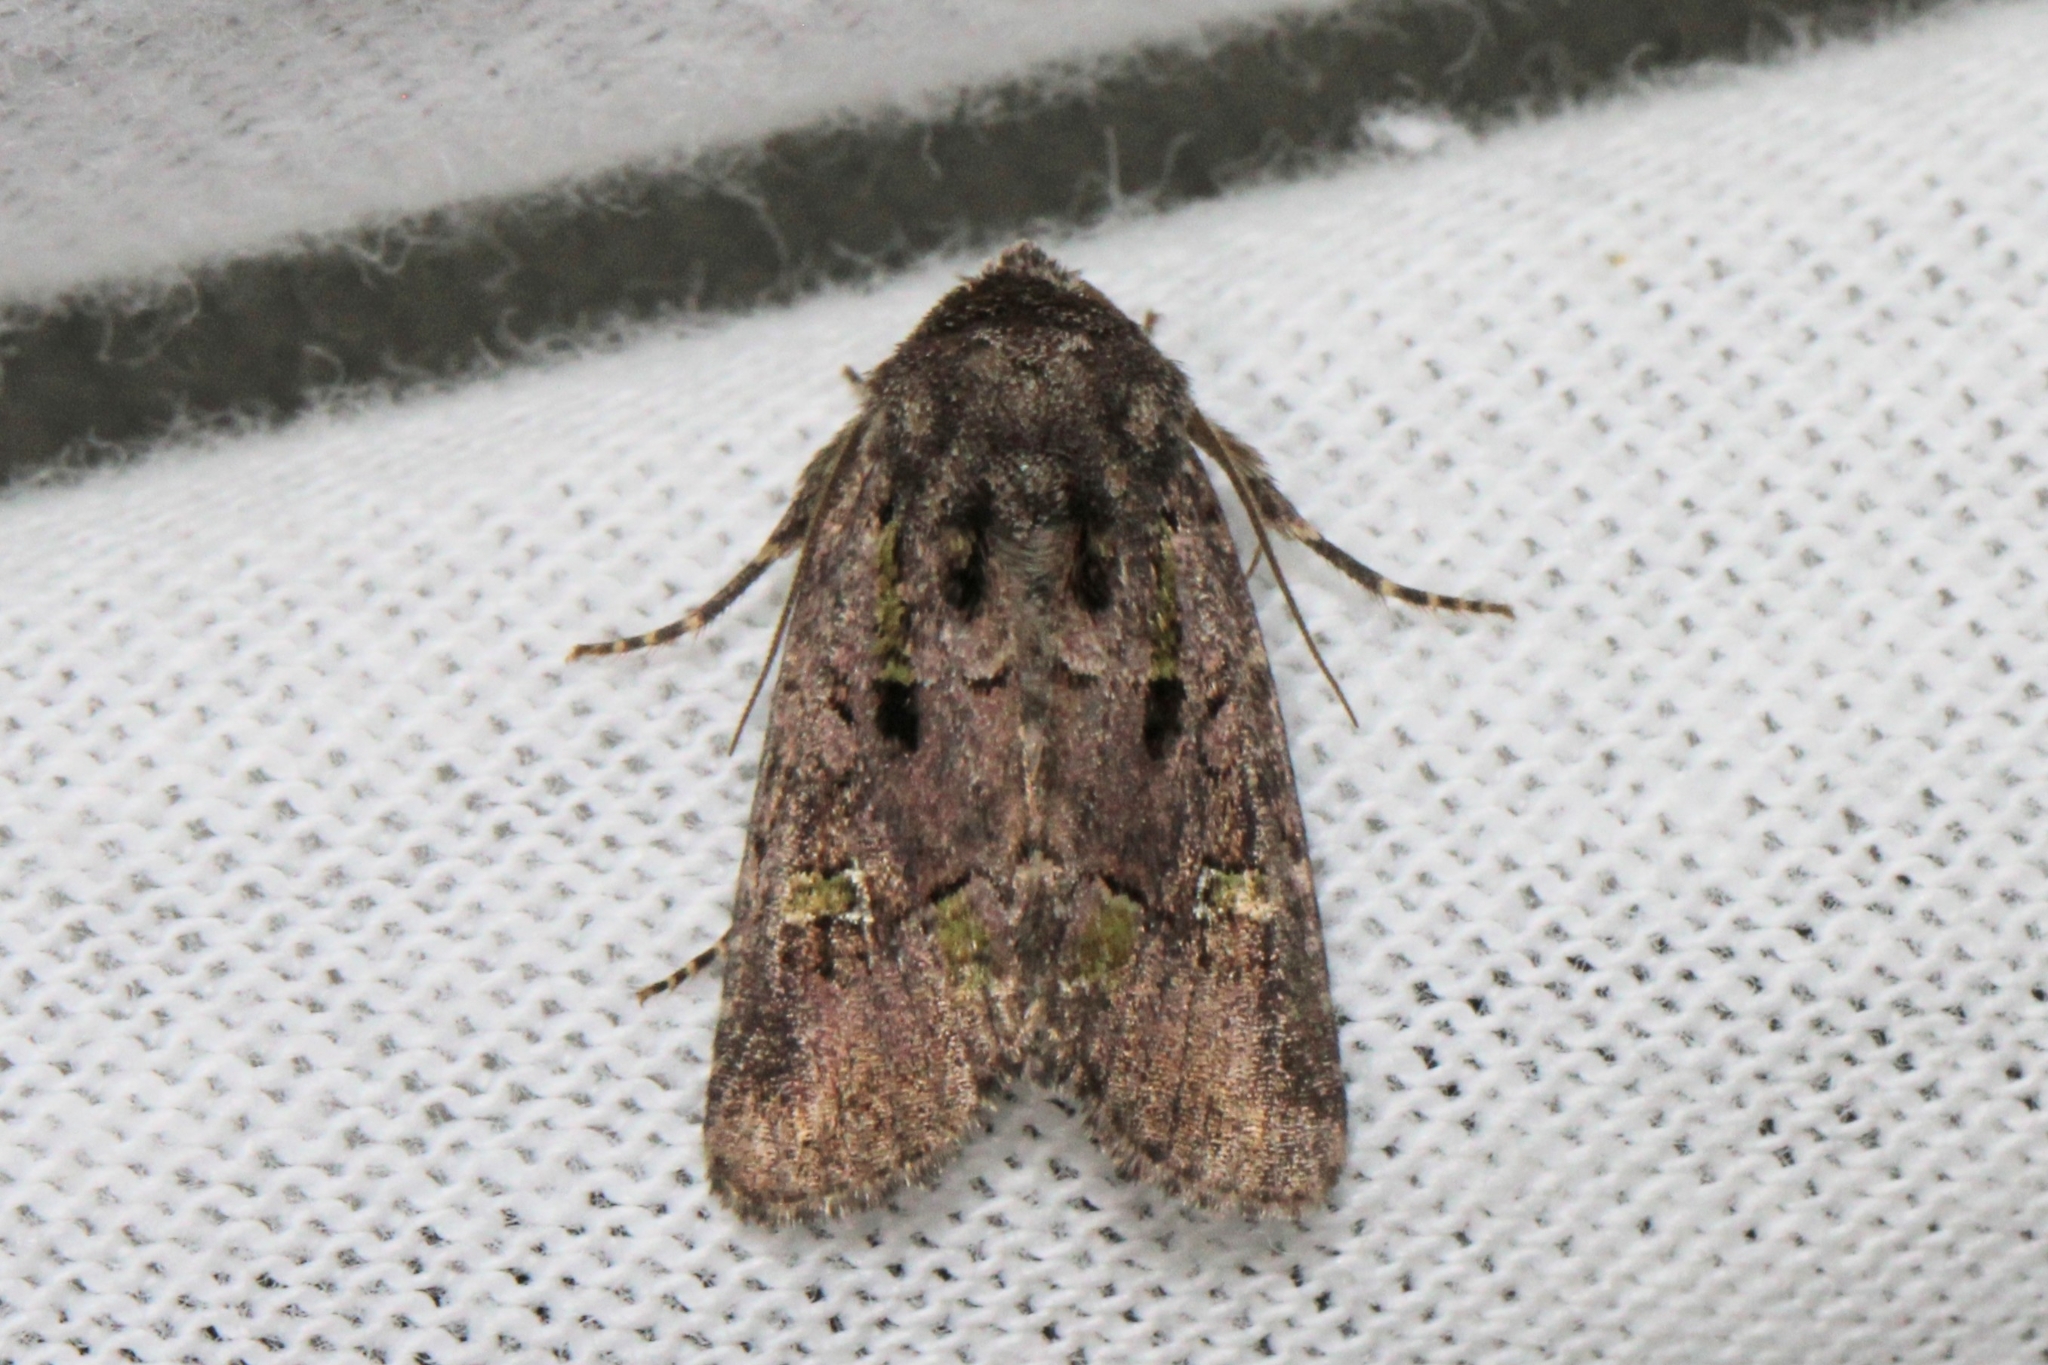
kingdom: Animalia
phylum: Arthropoda
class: Insecta
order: Lepidoptera
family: Noctuidae
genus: Lacinipolia
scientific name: Lacinipolia renigera
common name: Kidney-spotted minor
